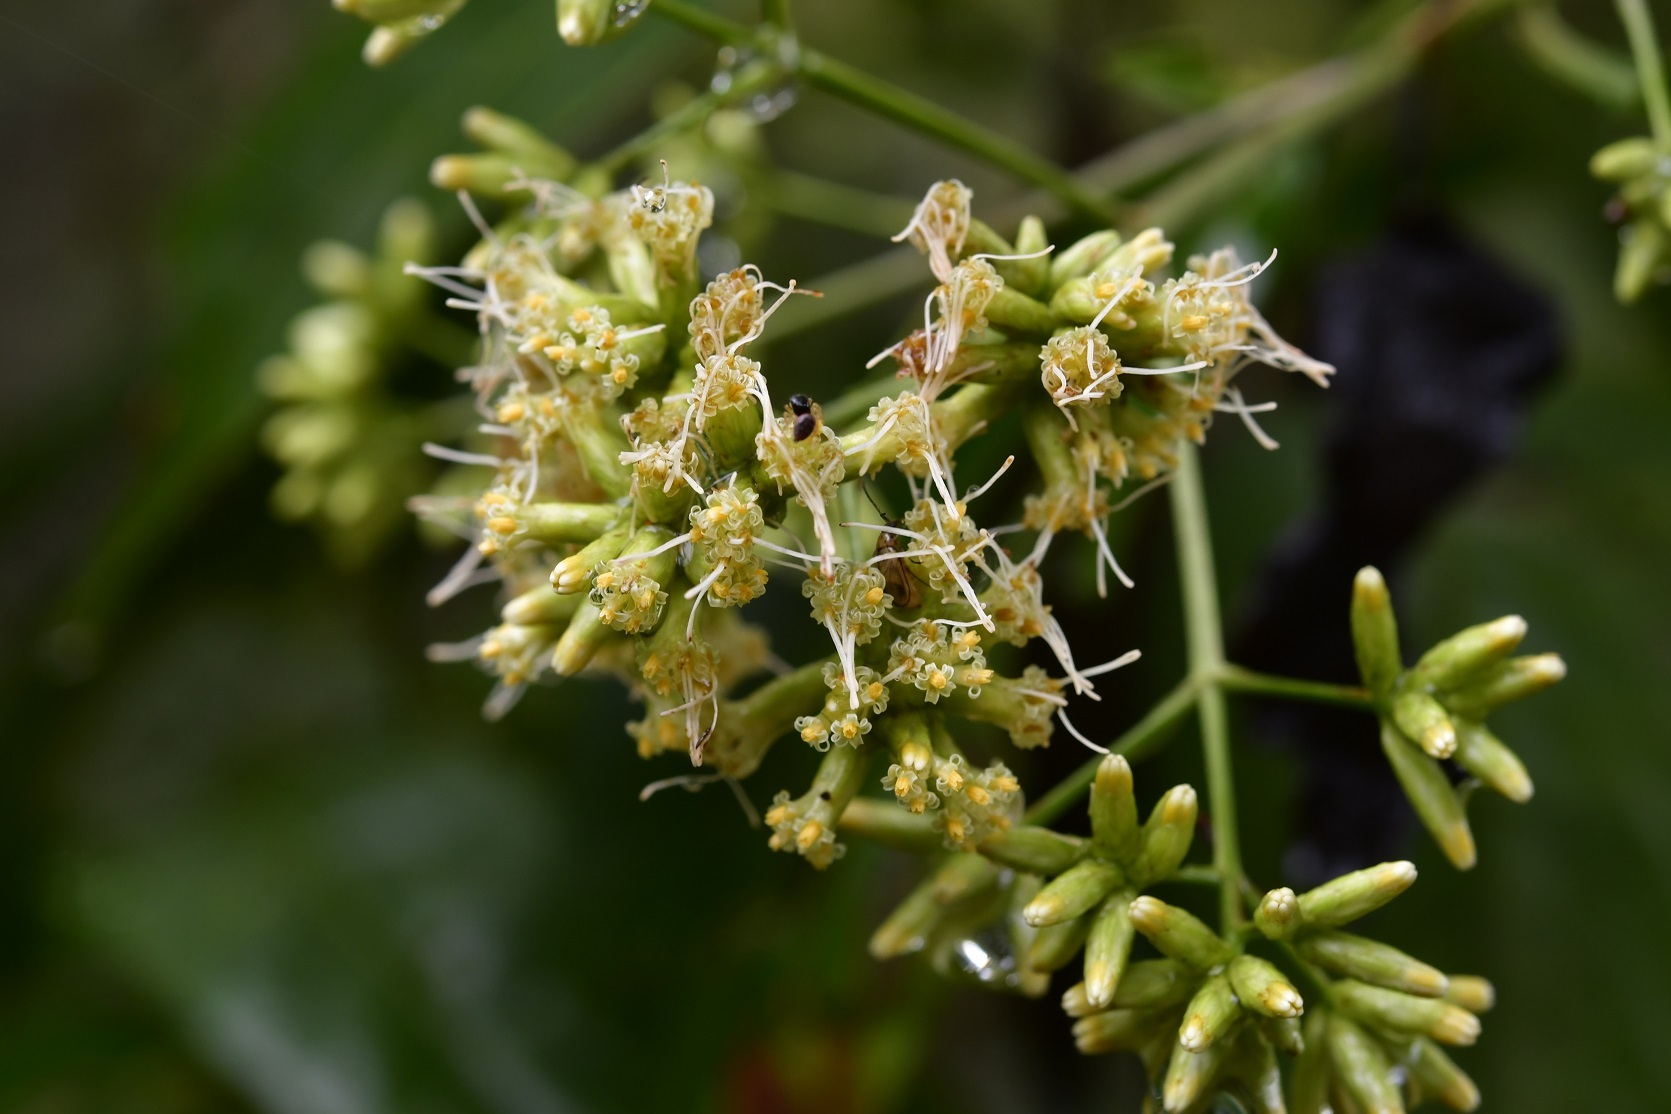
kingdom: Plantae
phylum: Tracheophyta
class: Magnoliopsida
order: Asterales
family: Asteraceae
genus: Critonia
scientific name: Critonia hospitalis
